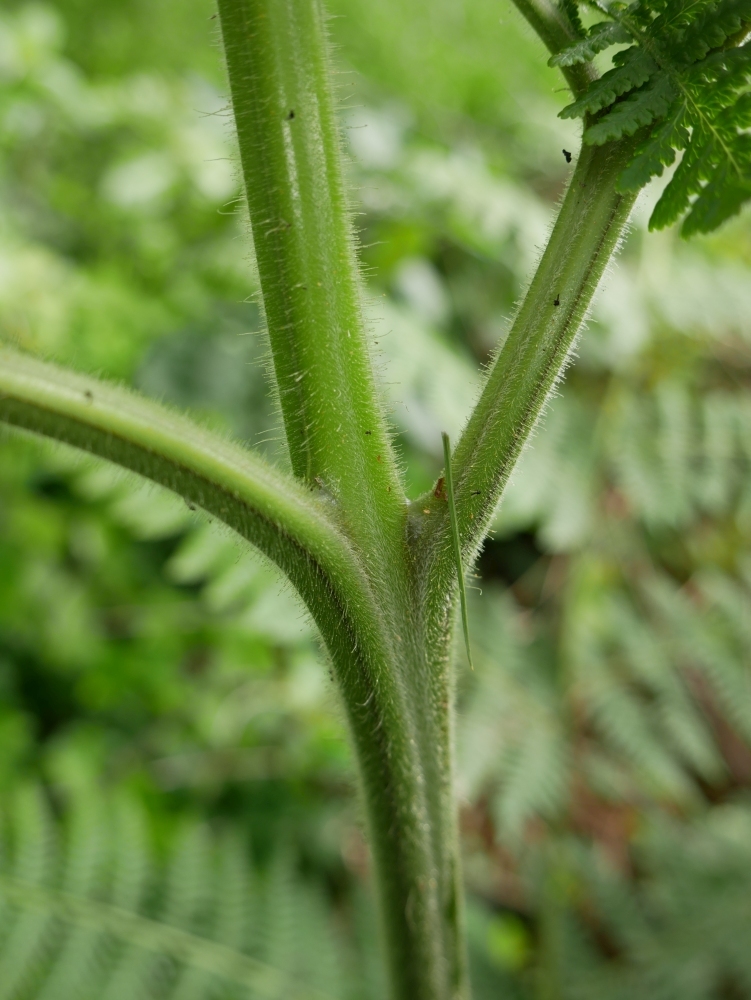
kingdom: Plantae
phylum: Tracheophyta
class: Polypodiopsida
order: Polypodiales
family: Dennstaedtiaceae
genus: Hypolepis
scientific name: Hypolepis dicksonioides
